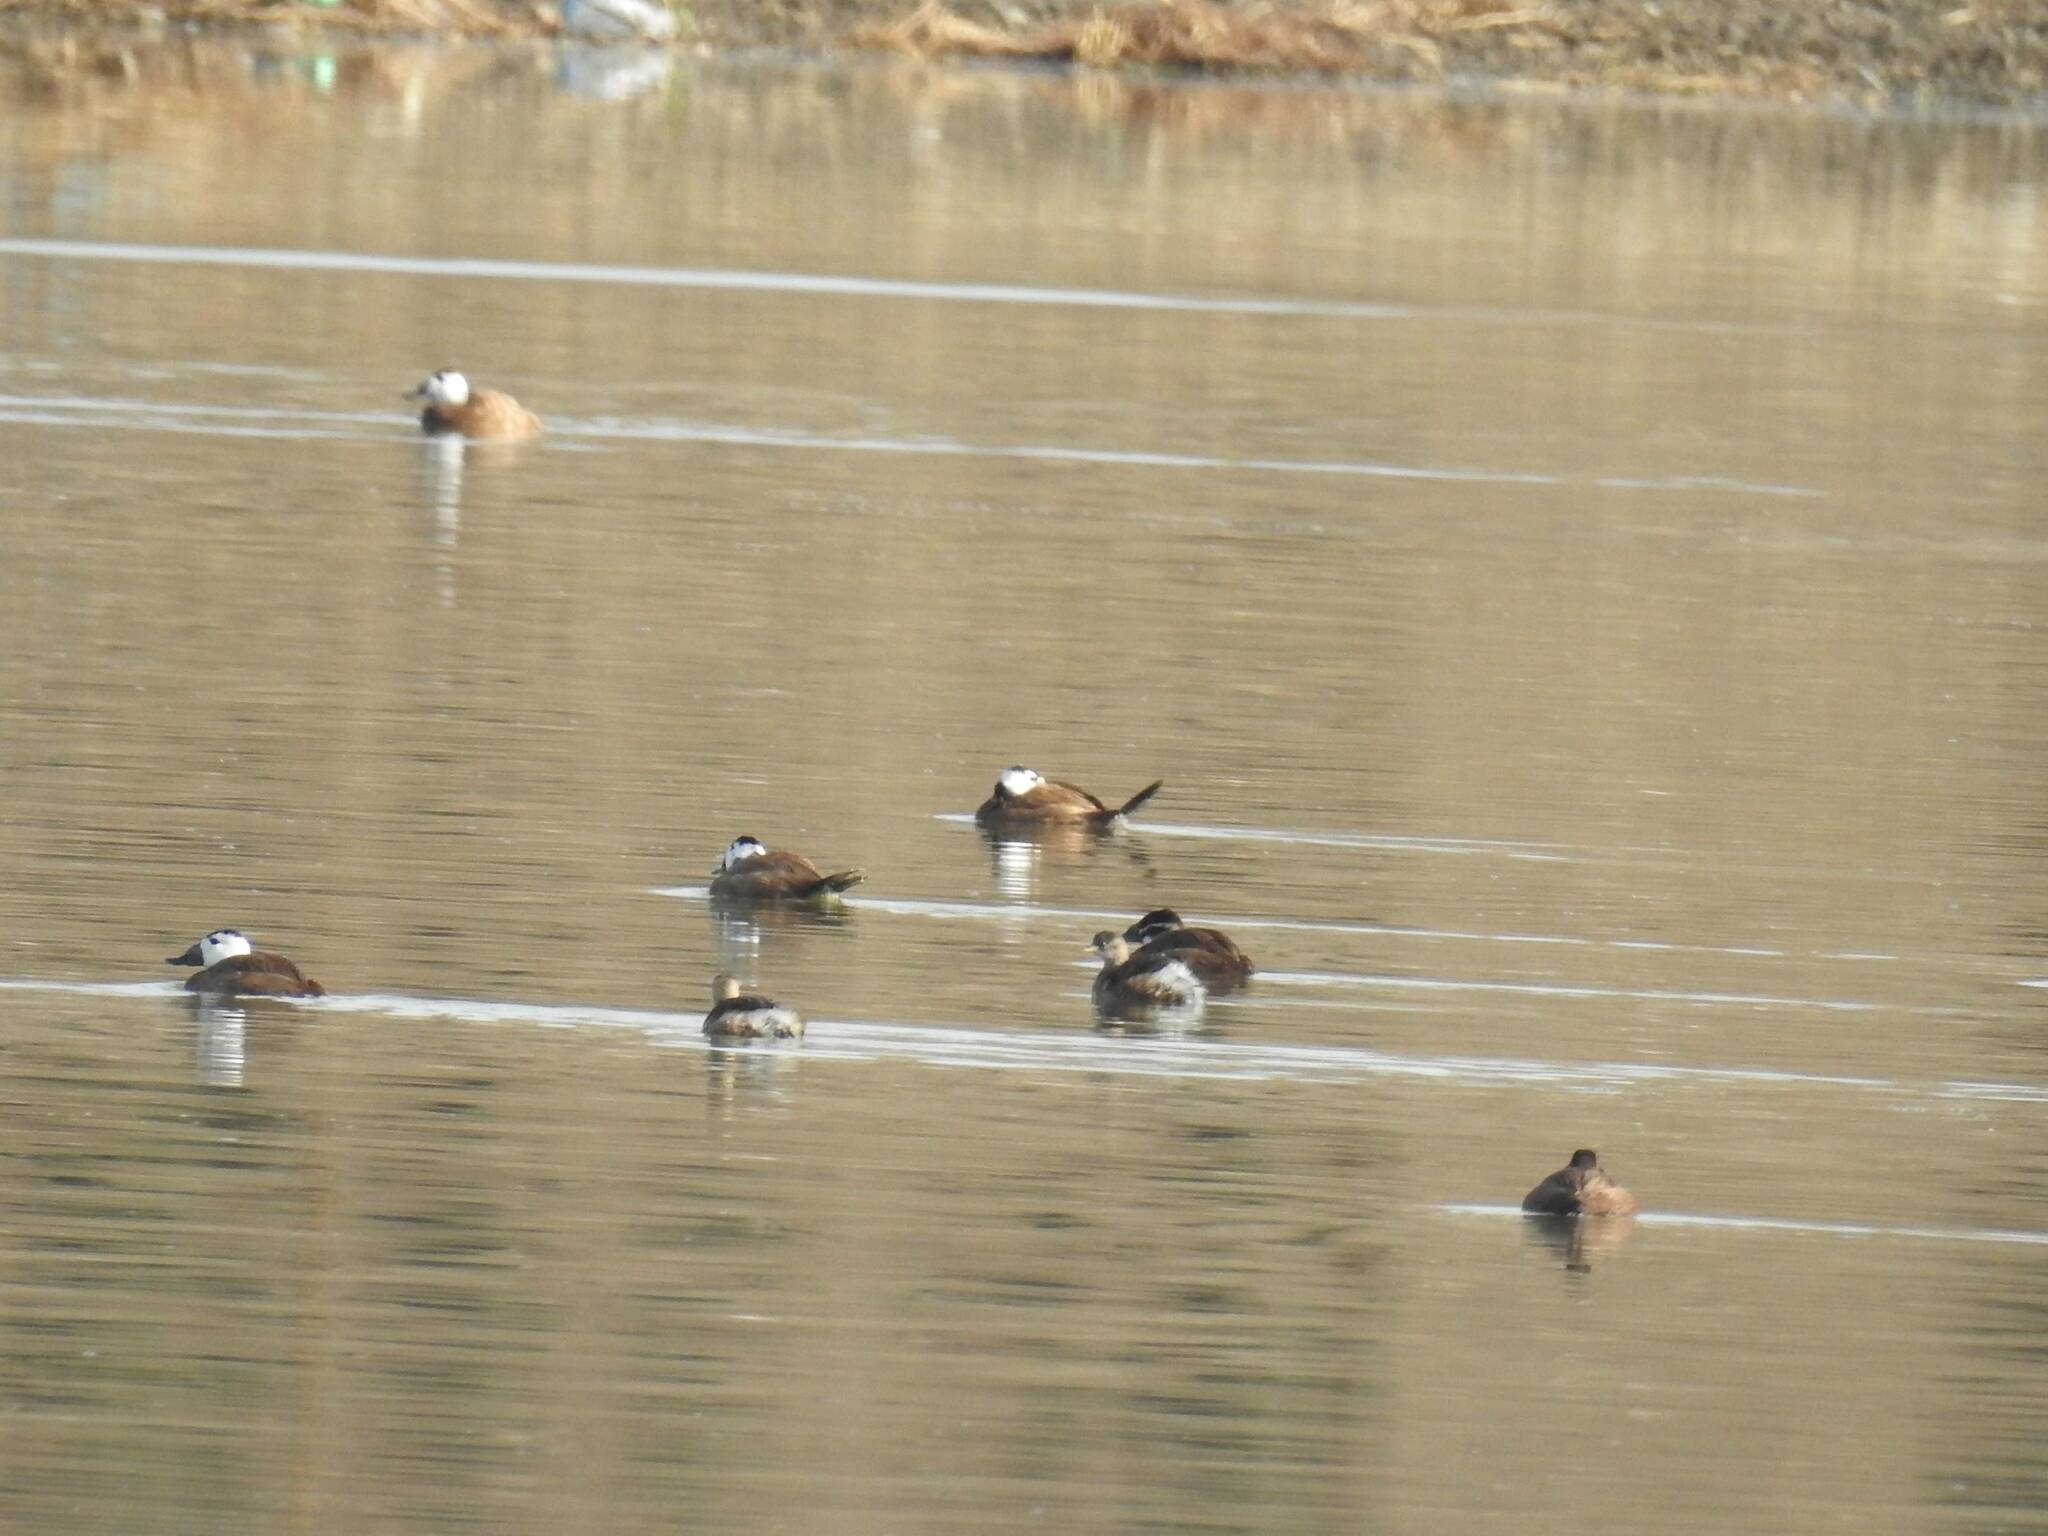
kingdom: Animalia
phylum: Chordata
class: Aves
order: Anseriformes
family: Anatidae
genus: Oxyura
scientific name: Oxyura leucocephala
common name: White-headed duck
